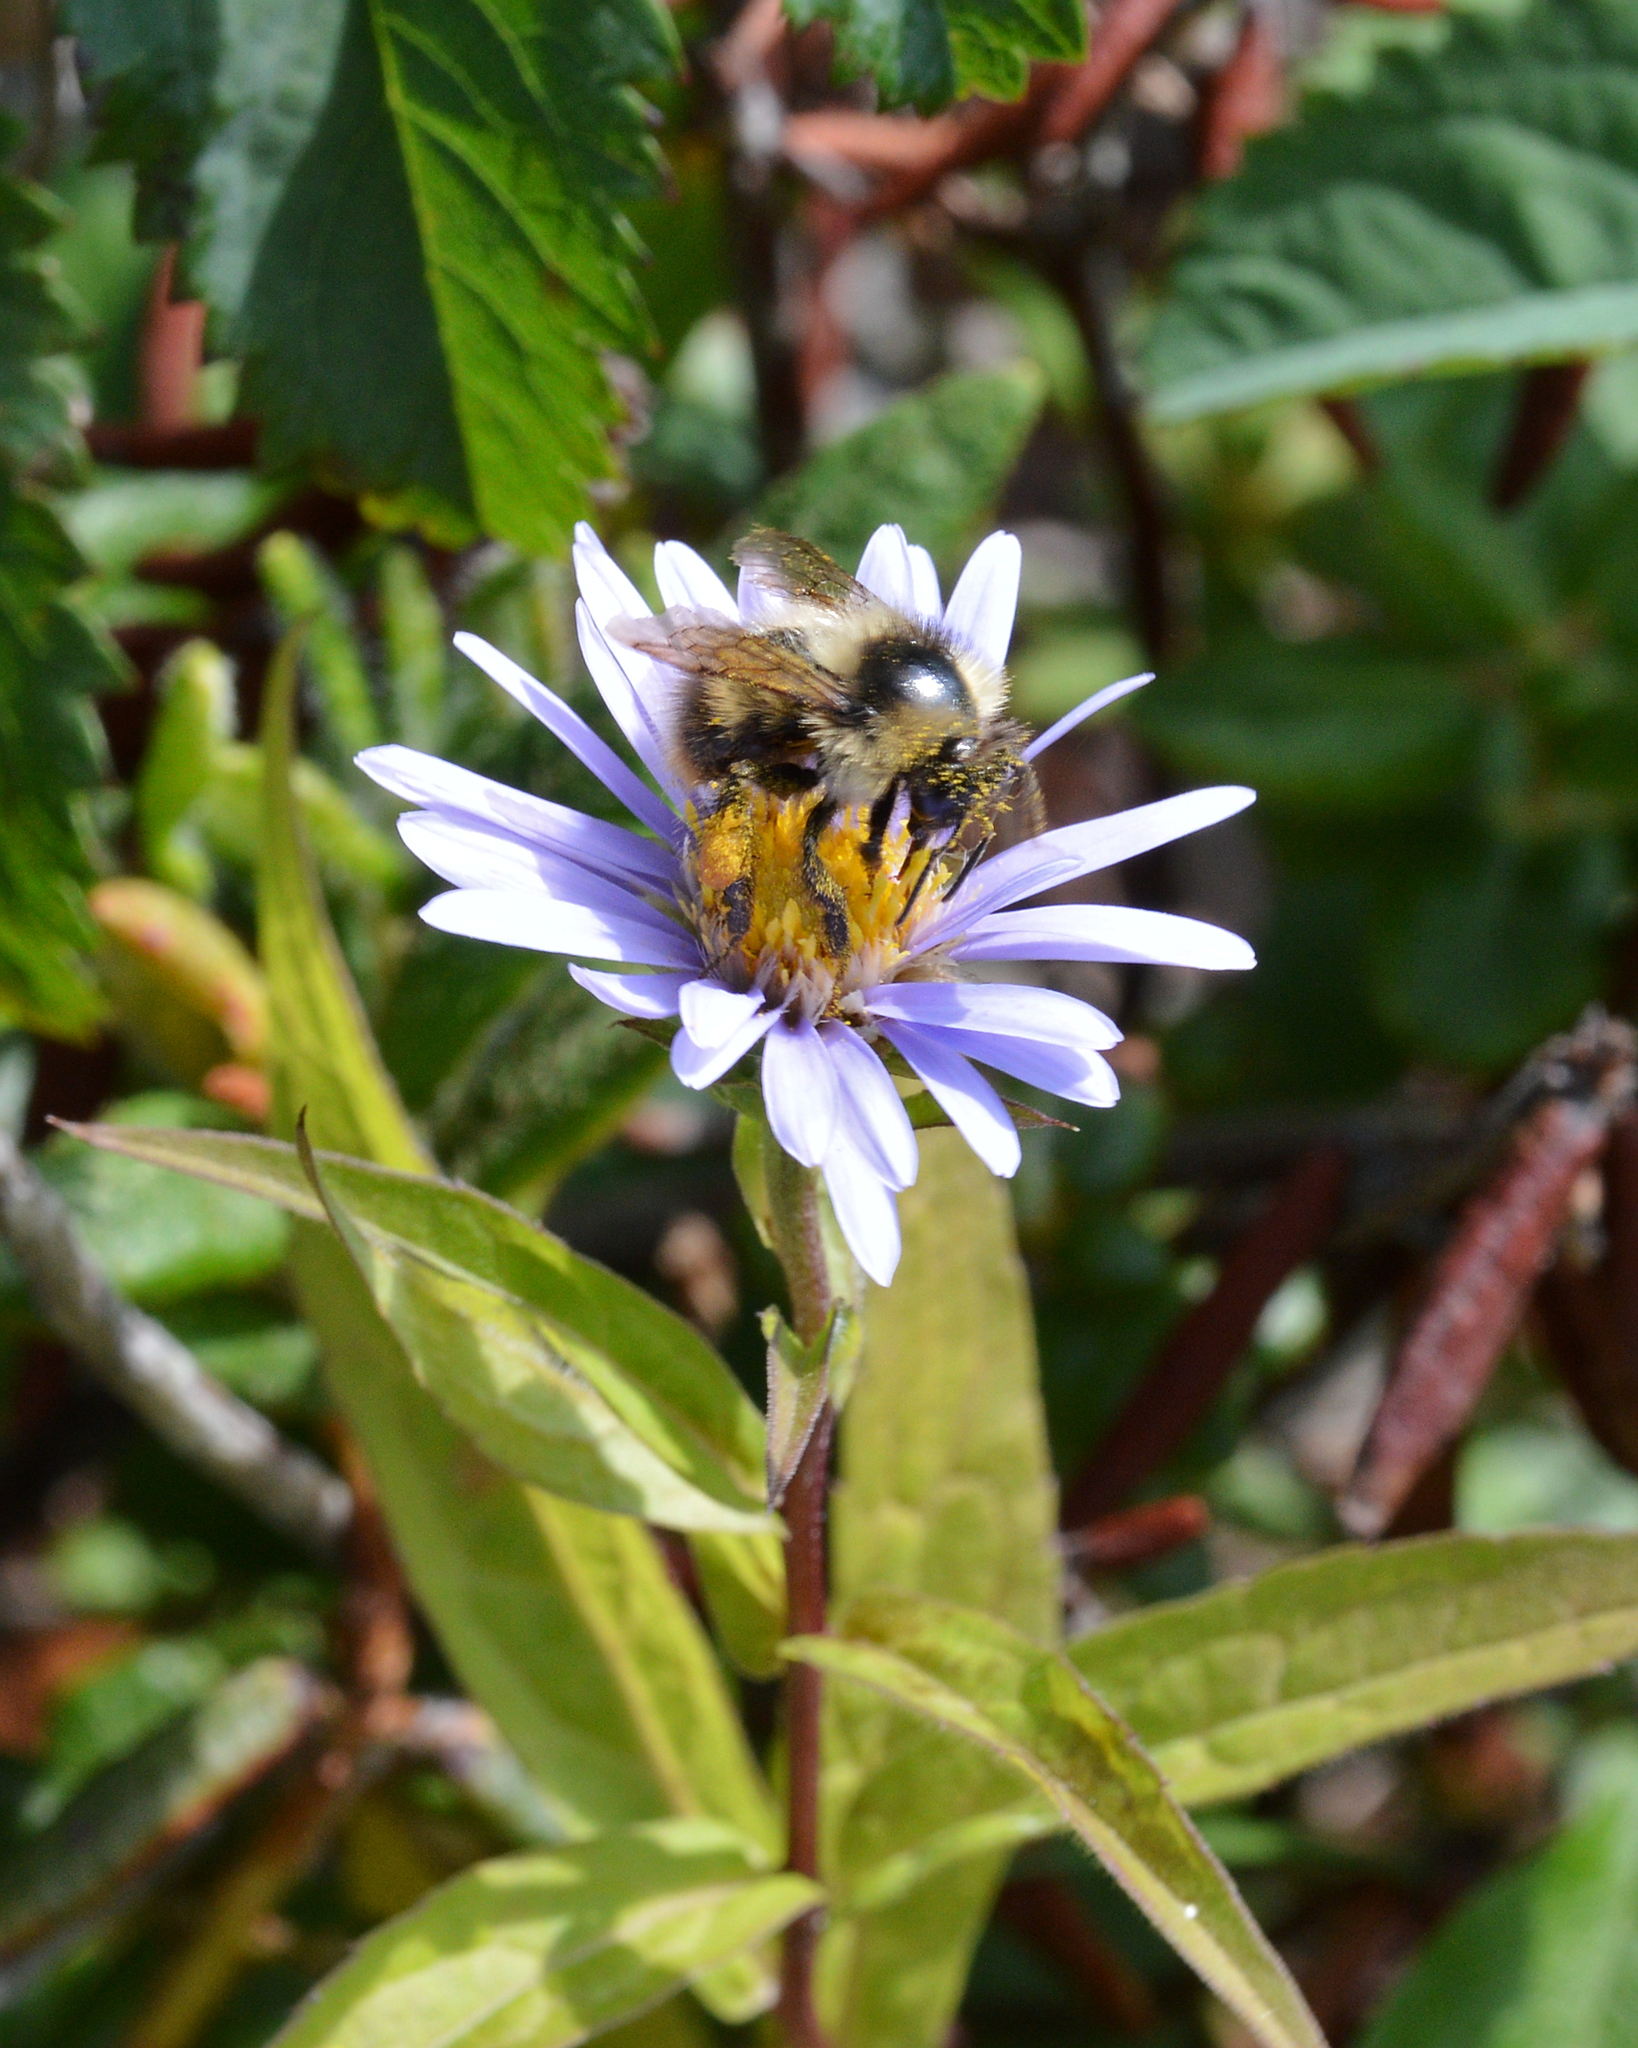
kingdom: Plantae
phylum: Tracheophyta
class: Magnoliopsida
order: Asterales
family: Asteraceae
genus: Eurybia
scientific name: Eurybia radula
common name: Low rough aster
